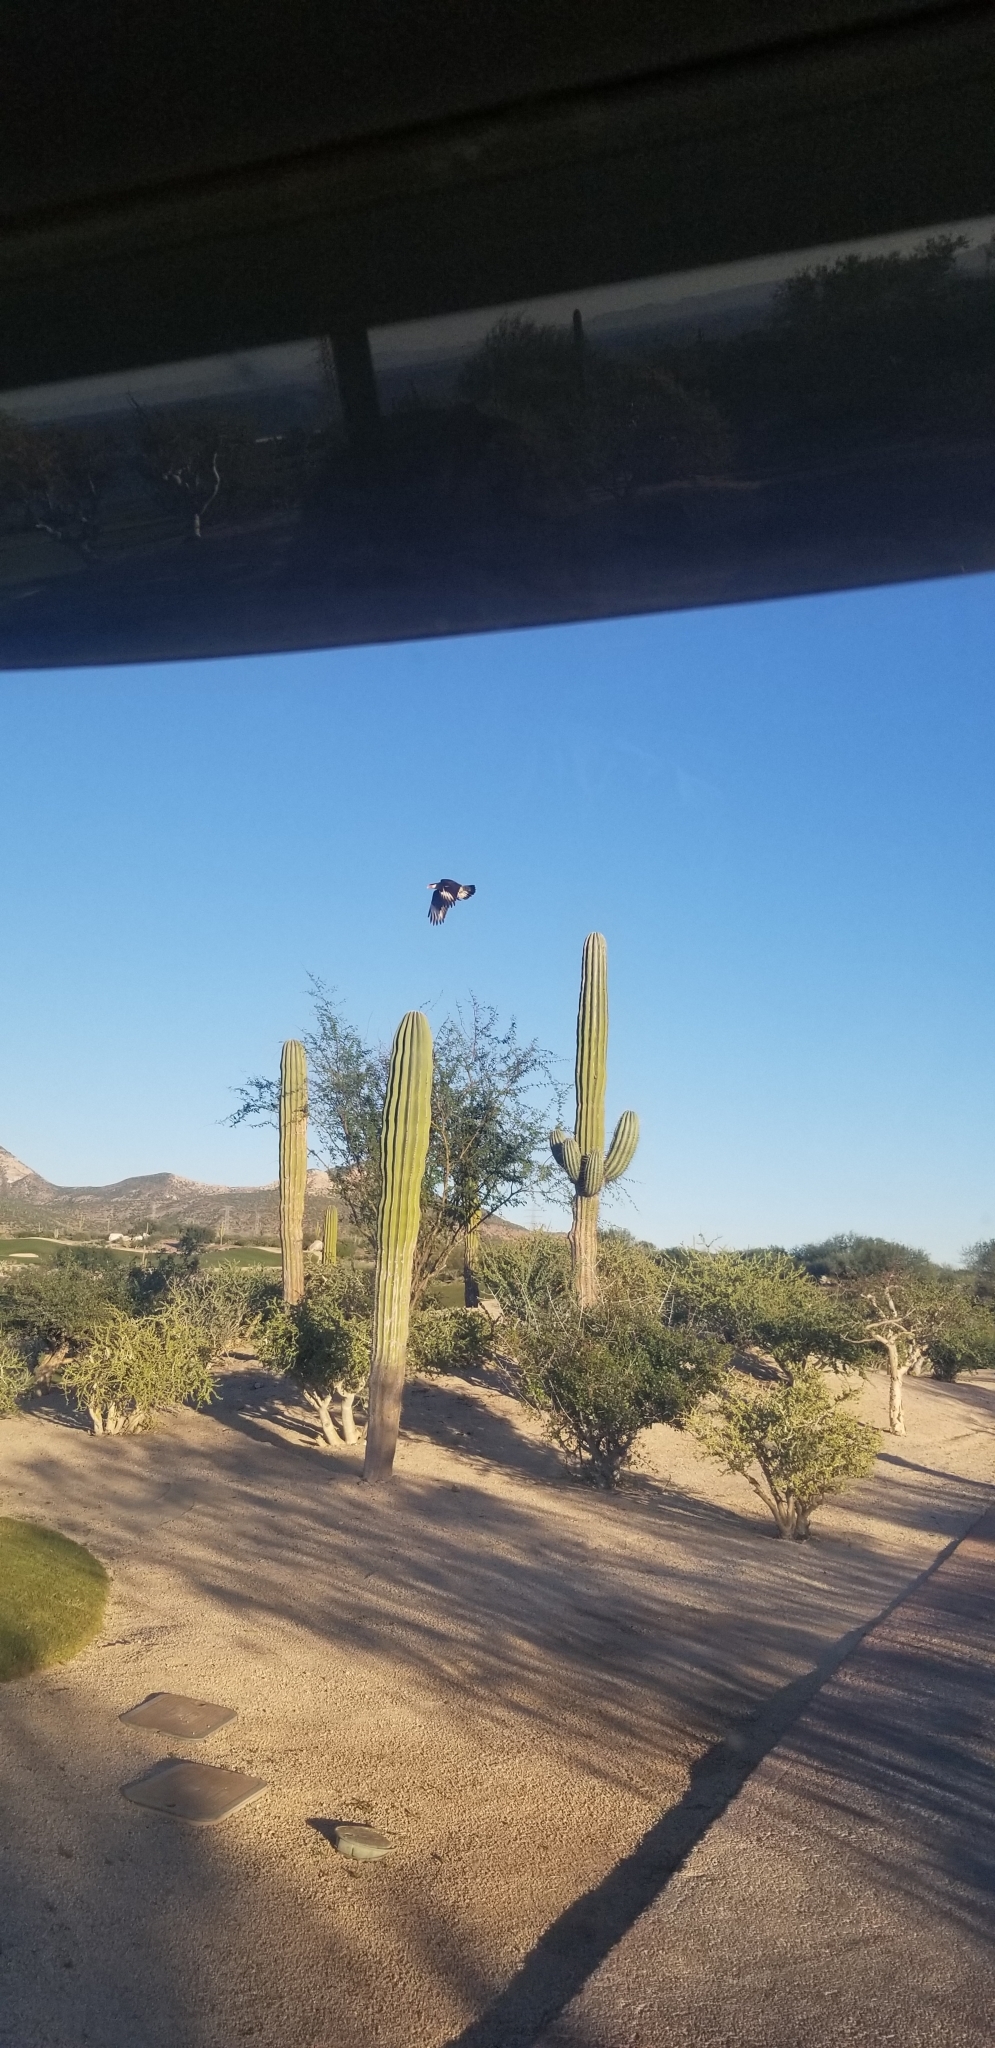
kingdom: Animalia
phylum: Chordata
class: Aves
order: Falconiformes
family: Falconidae
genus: Caracara
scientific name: Caracara plancus
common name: Southern caracara
